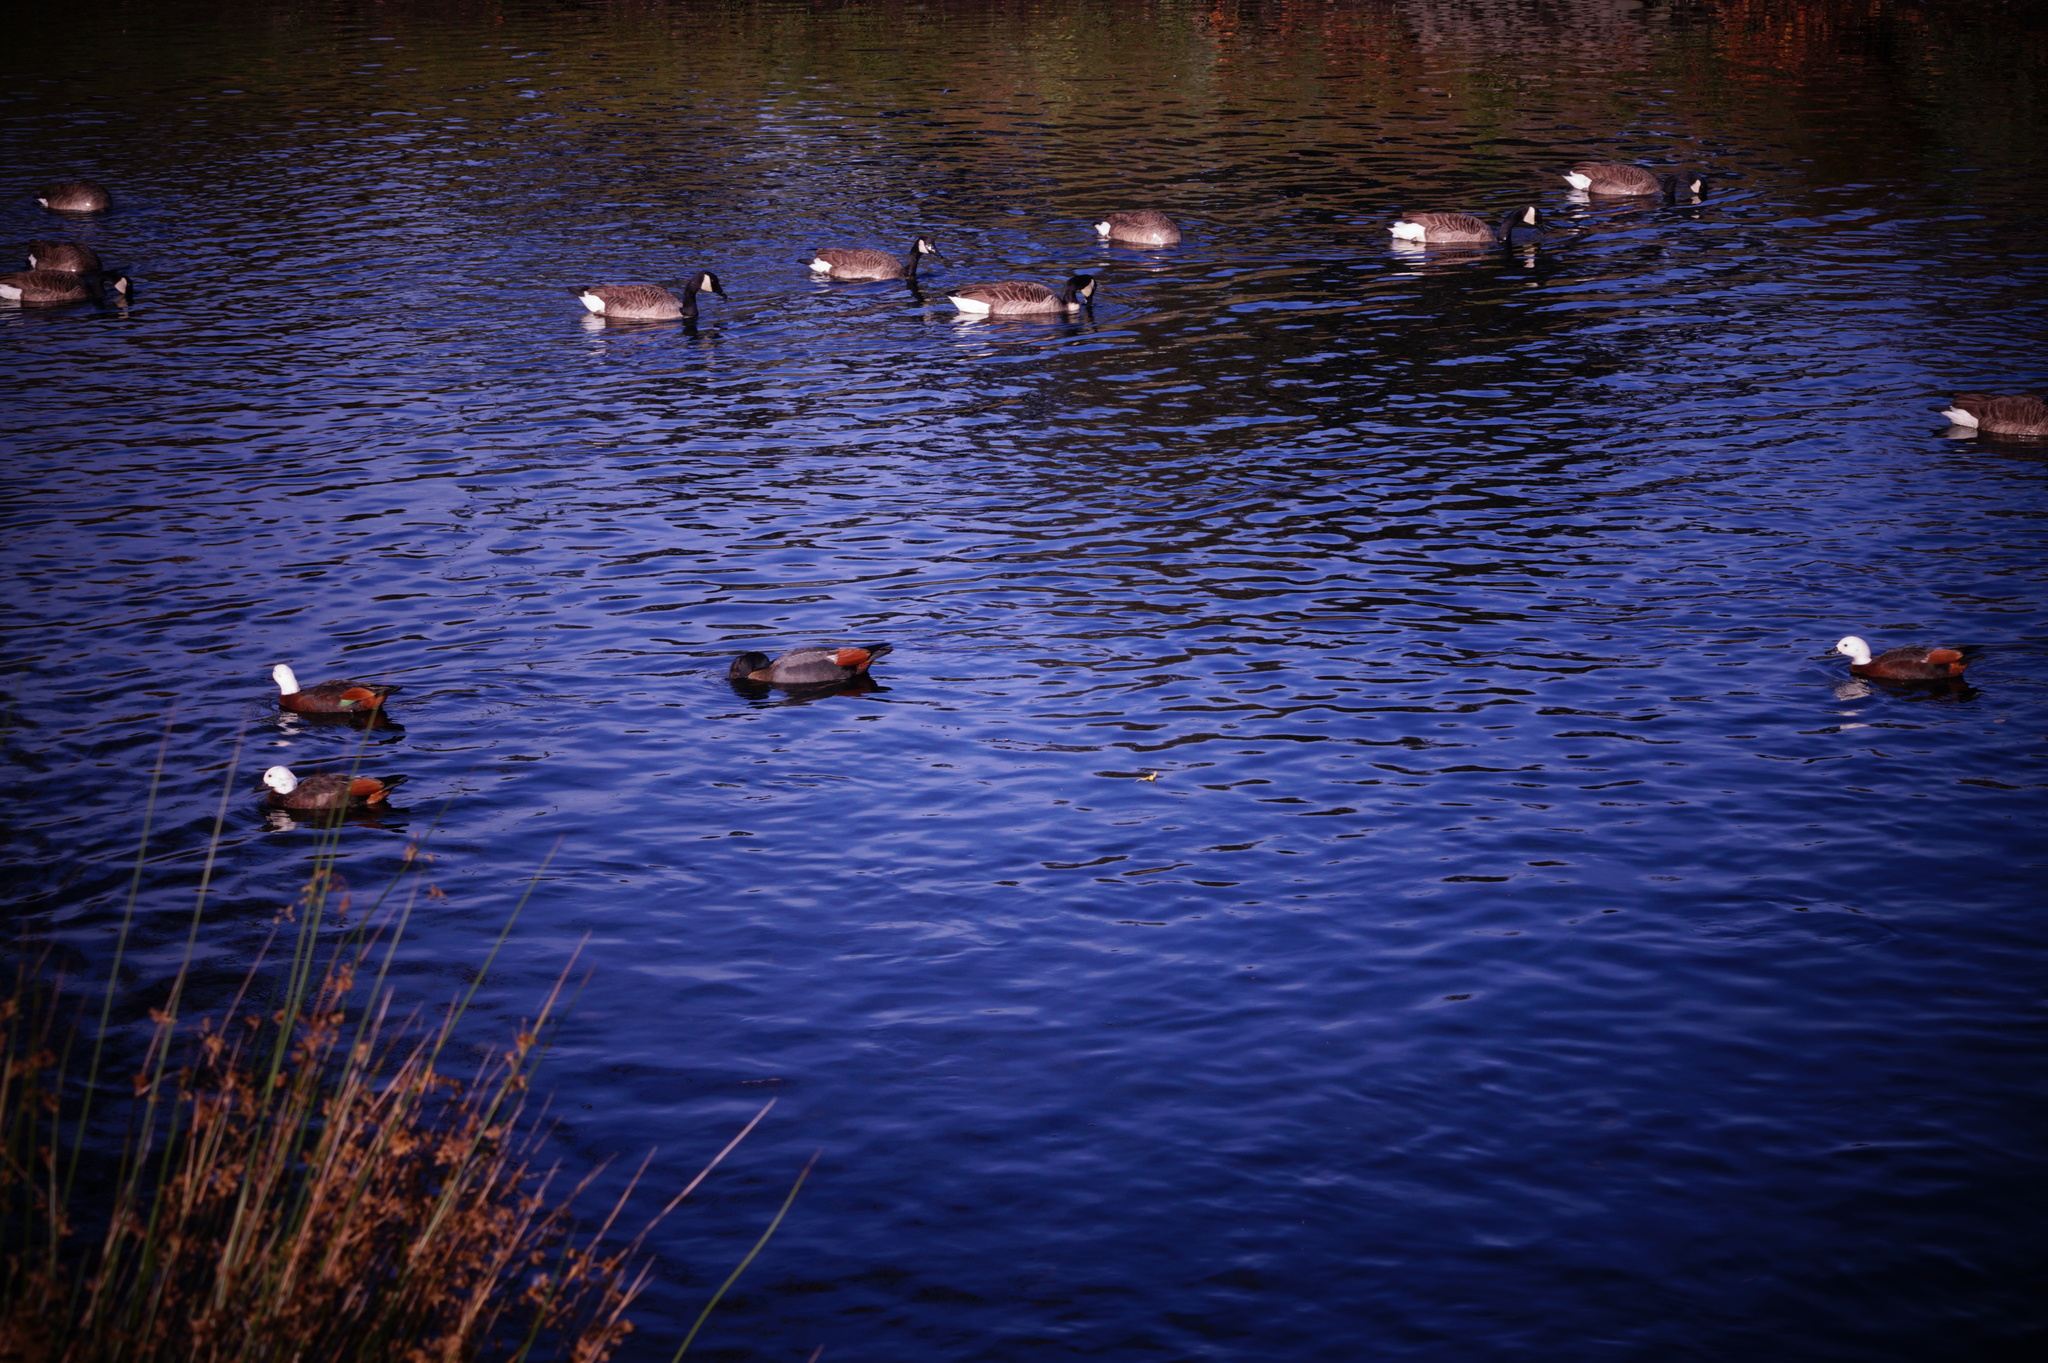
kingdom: Animalia
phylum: Chordata
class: Aves
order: Anseriformes
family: Anatidae
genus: Tadorna
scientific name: Tadorna variegata
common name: Paradise shelduck
